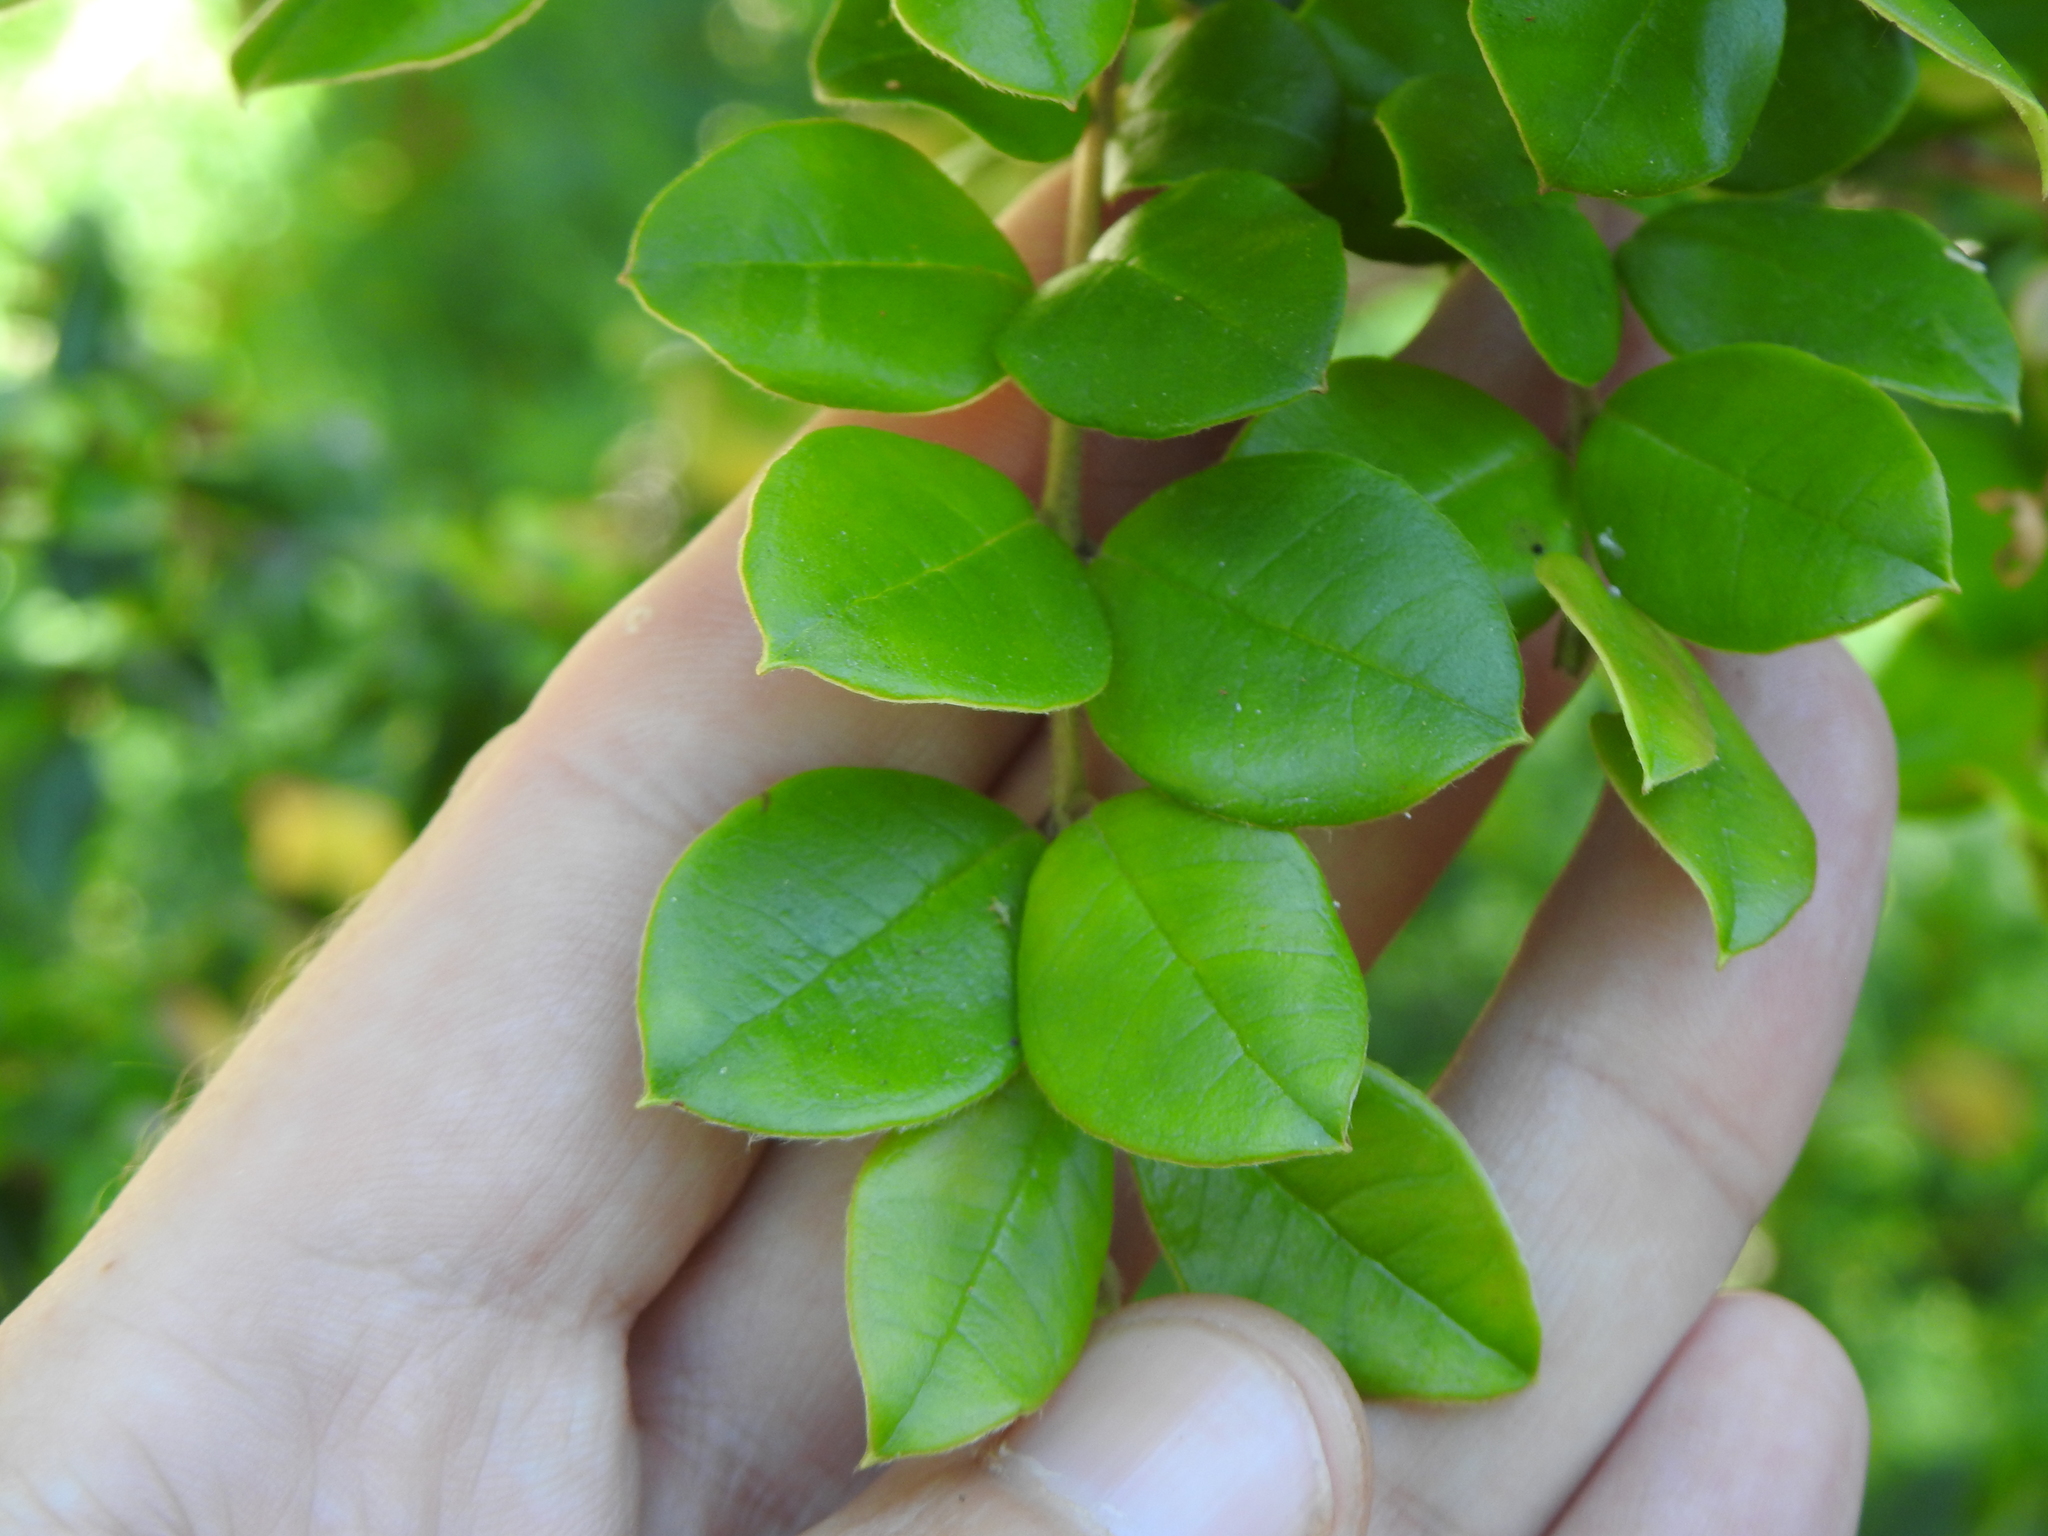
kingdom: Plantae
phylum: Tracheophyta
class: Magnoliopsida
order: Myrtales
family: Myrtaceae
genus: Luma
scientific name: Luma apiculata
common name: Chilean myrtle
